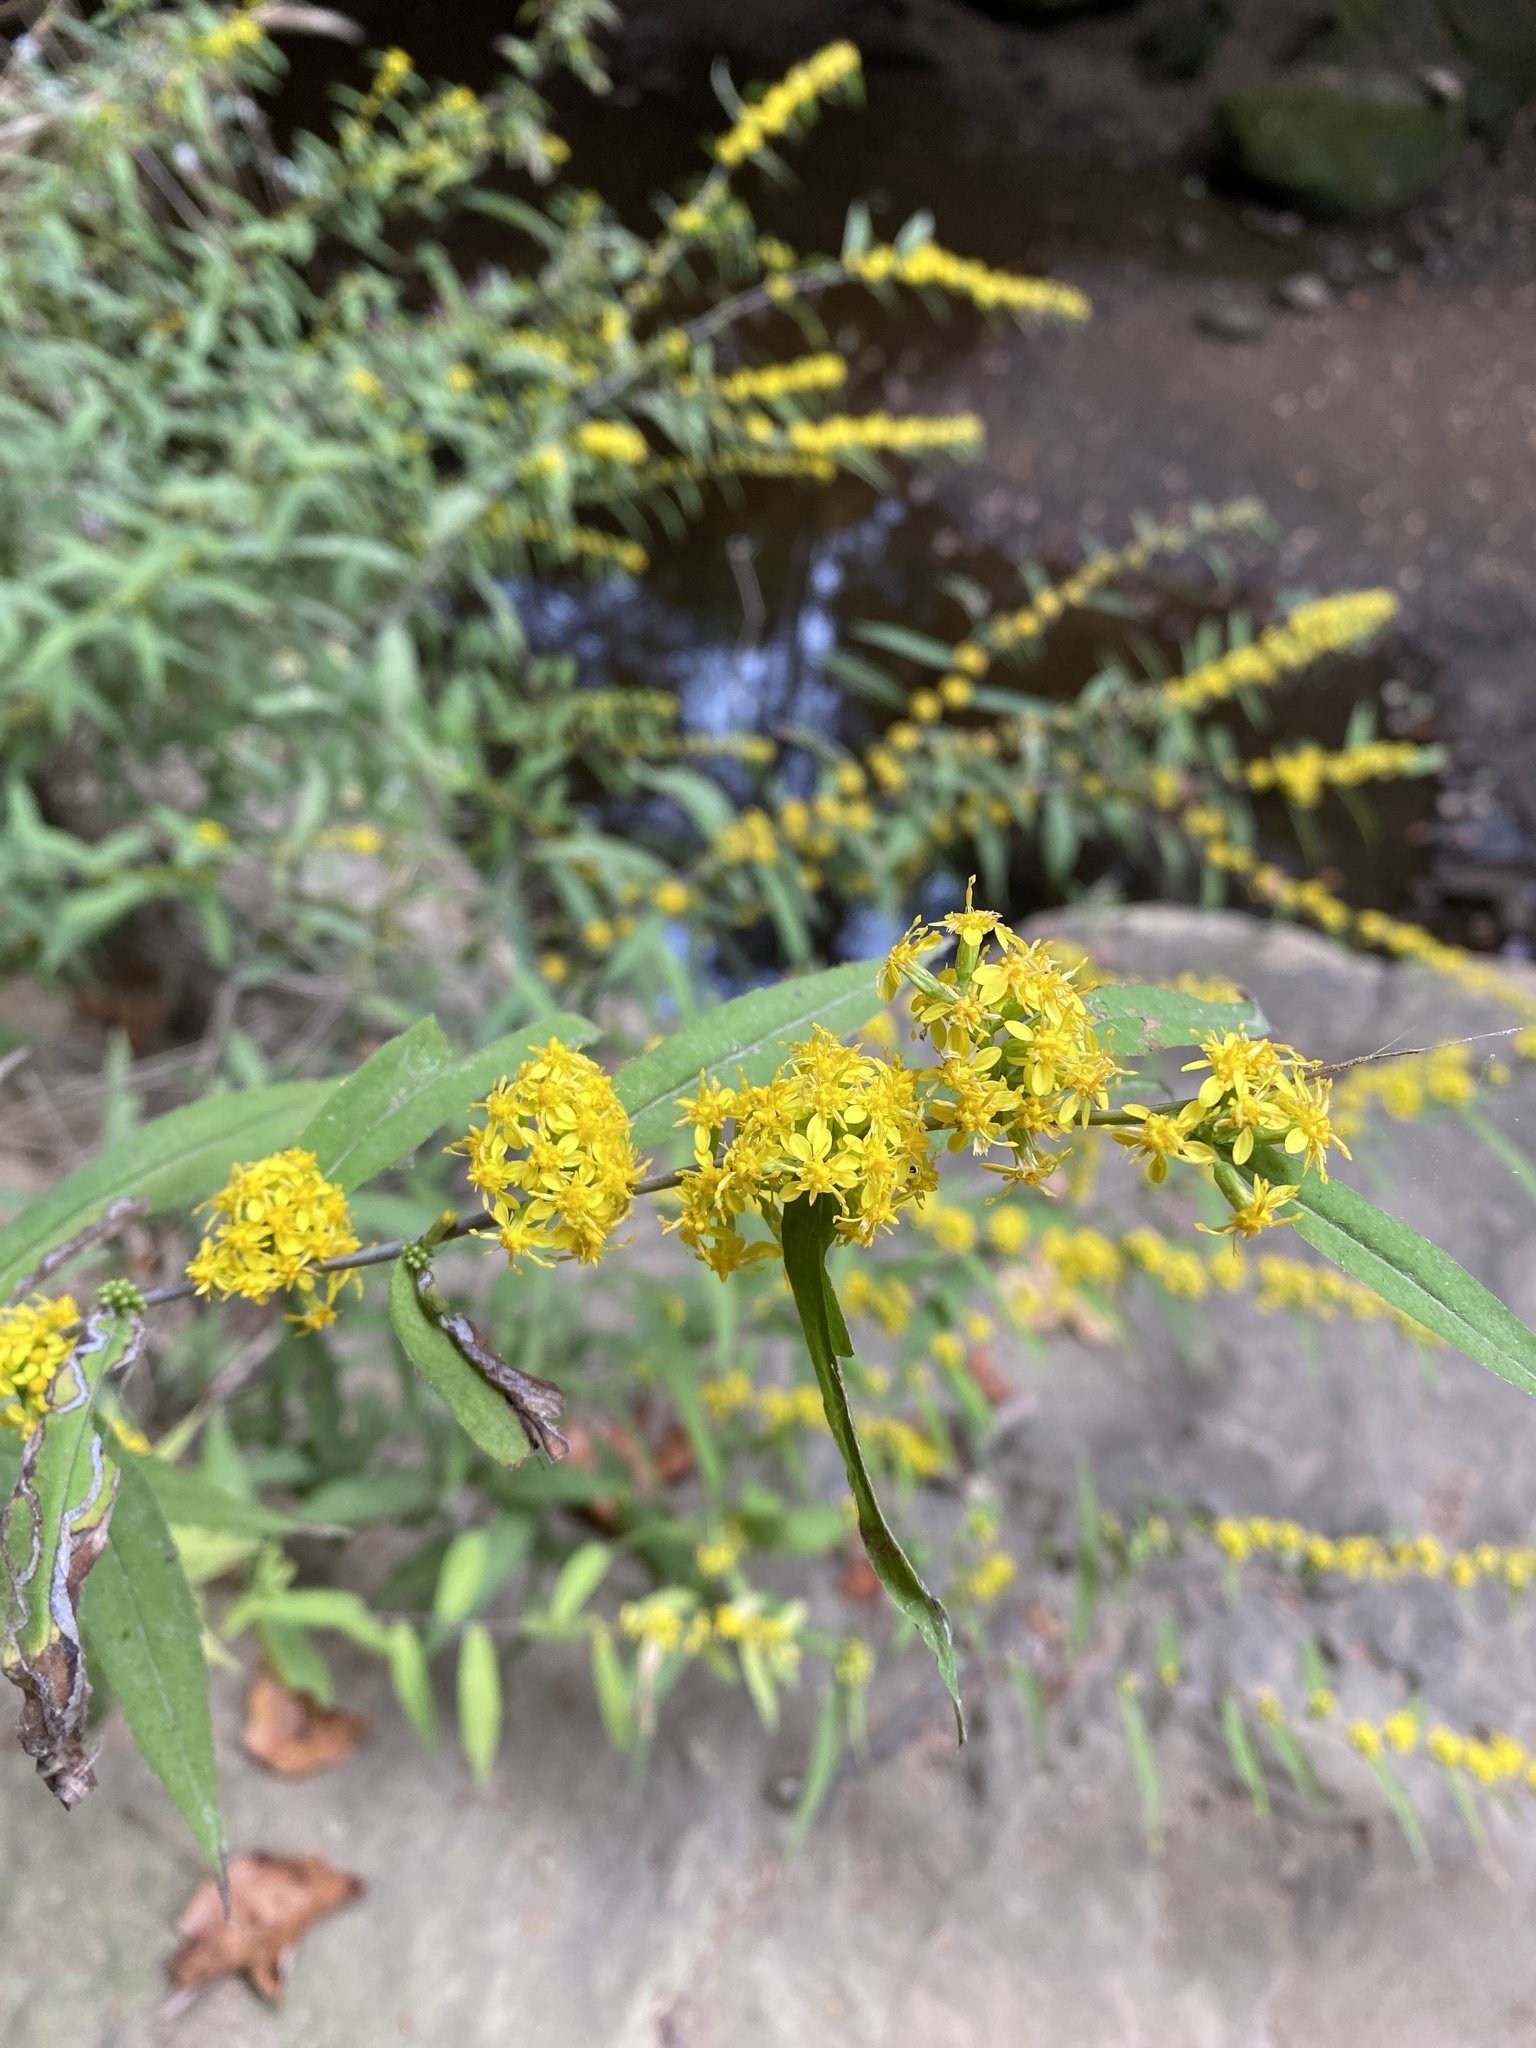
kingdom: Plantae
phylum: Tracheophyta
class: Magnoliopsida
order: Asterales
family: Asteraceae
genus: Solidago
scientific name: Solidago caesia
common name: Woodland goldenrod
